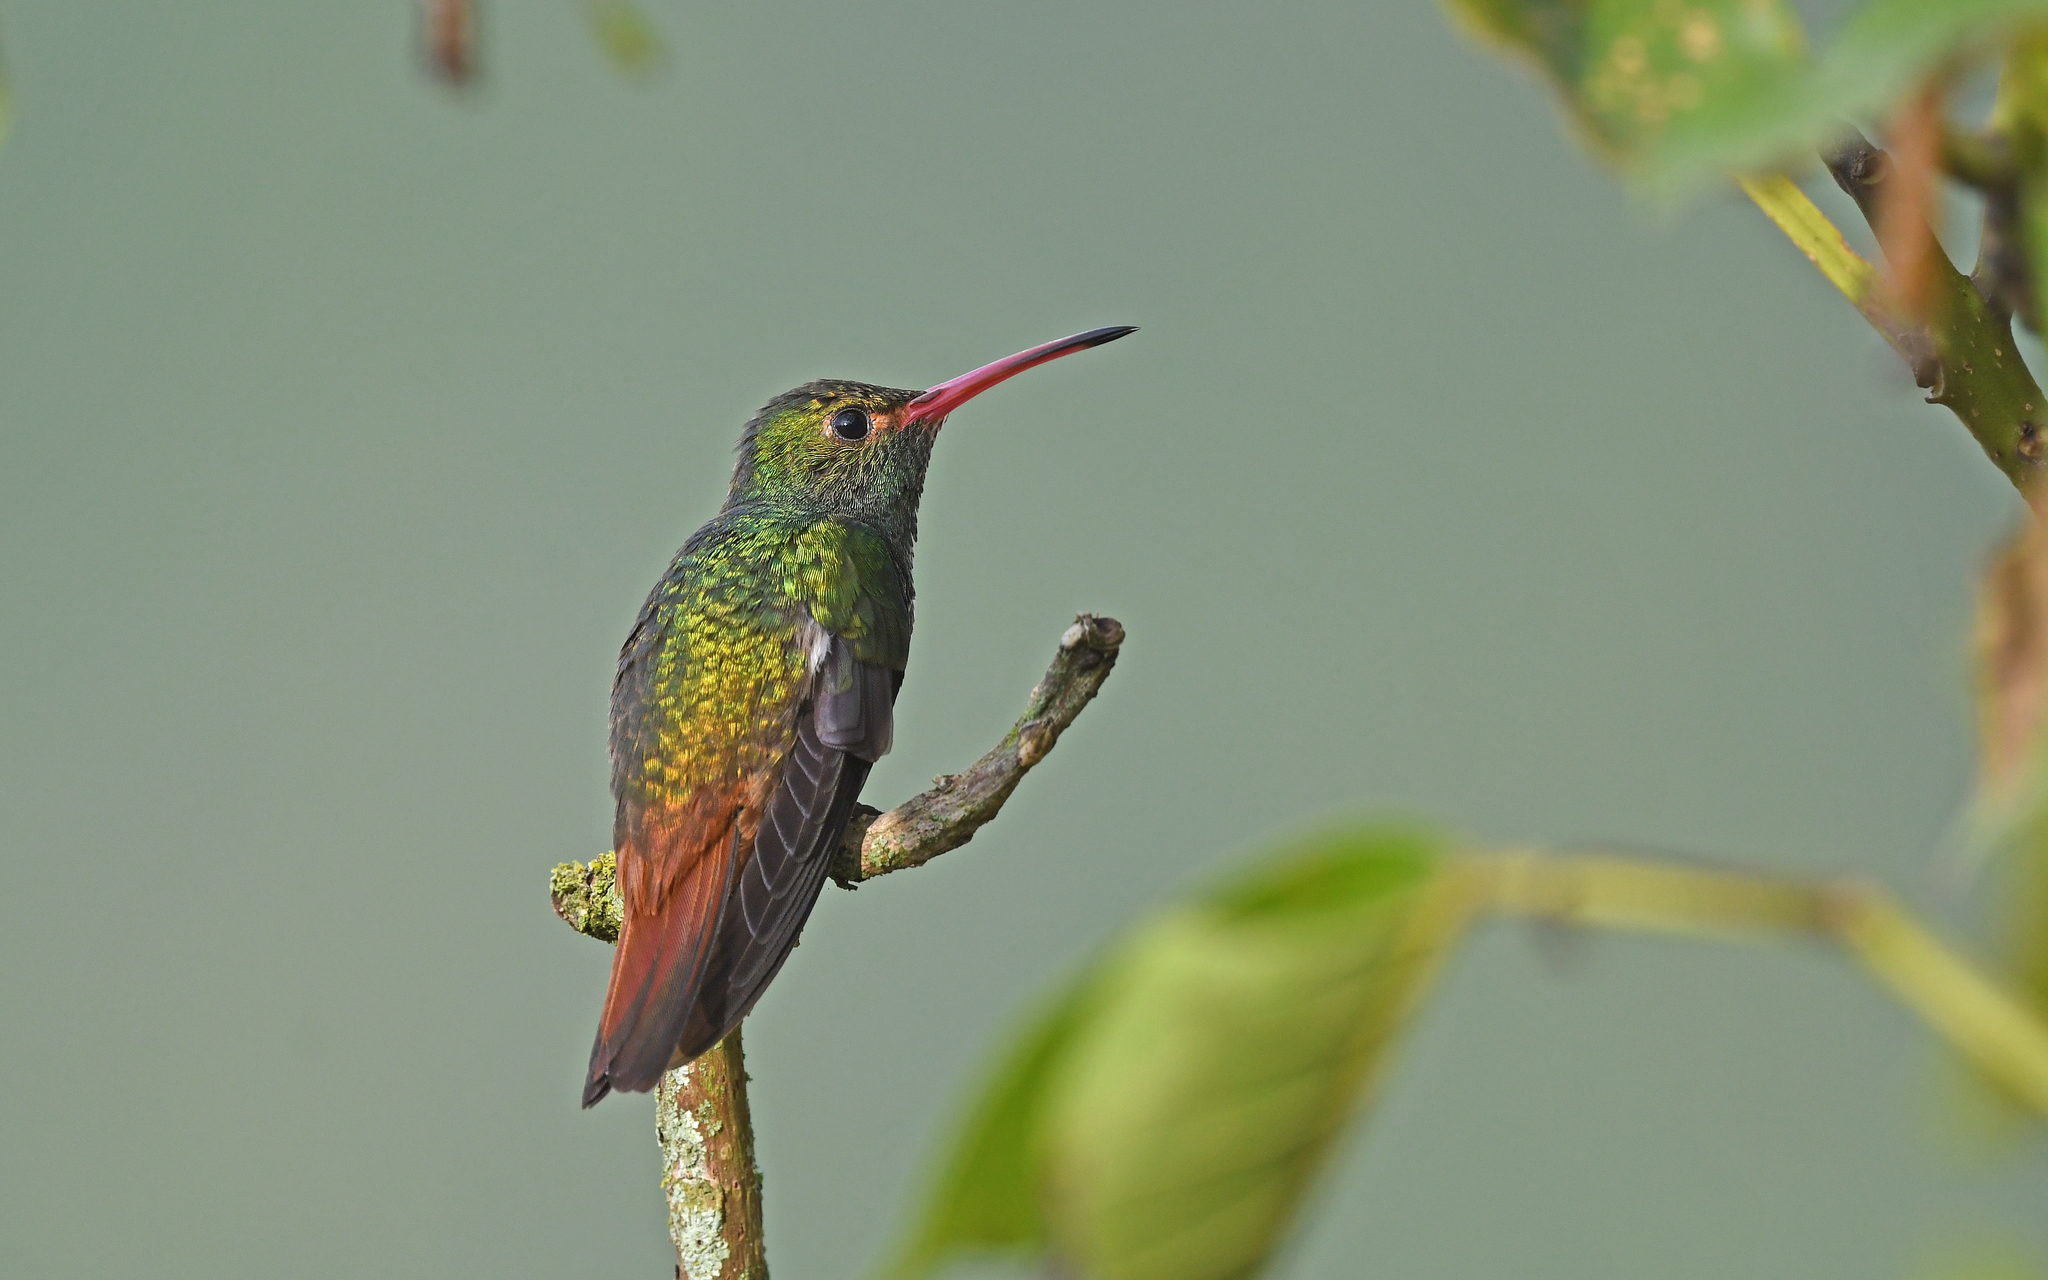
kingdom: Animalia
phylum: Chordata
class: Aves
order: Apodiformes
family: Trochilidae
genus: Amazilia
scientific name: Amazilia tzacatl
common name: Rufous-tailed hummingbird
